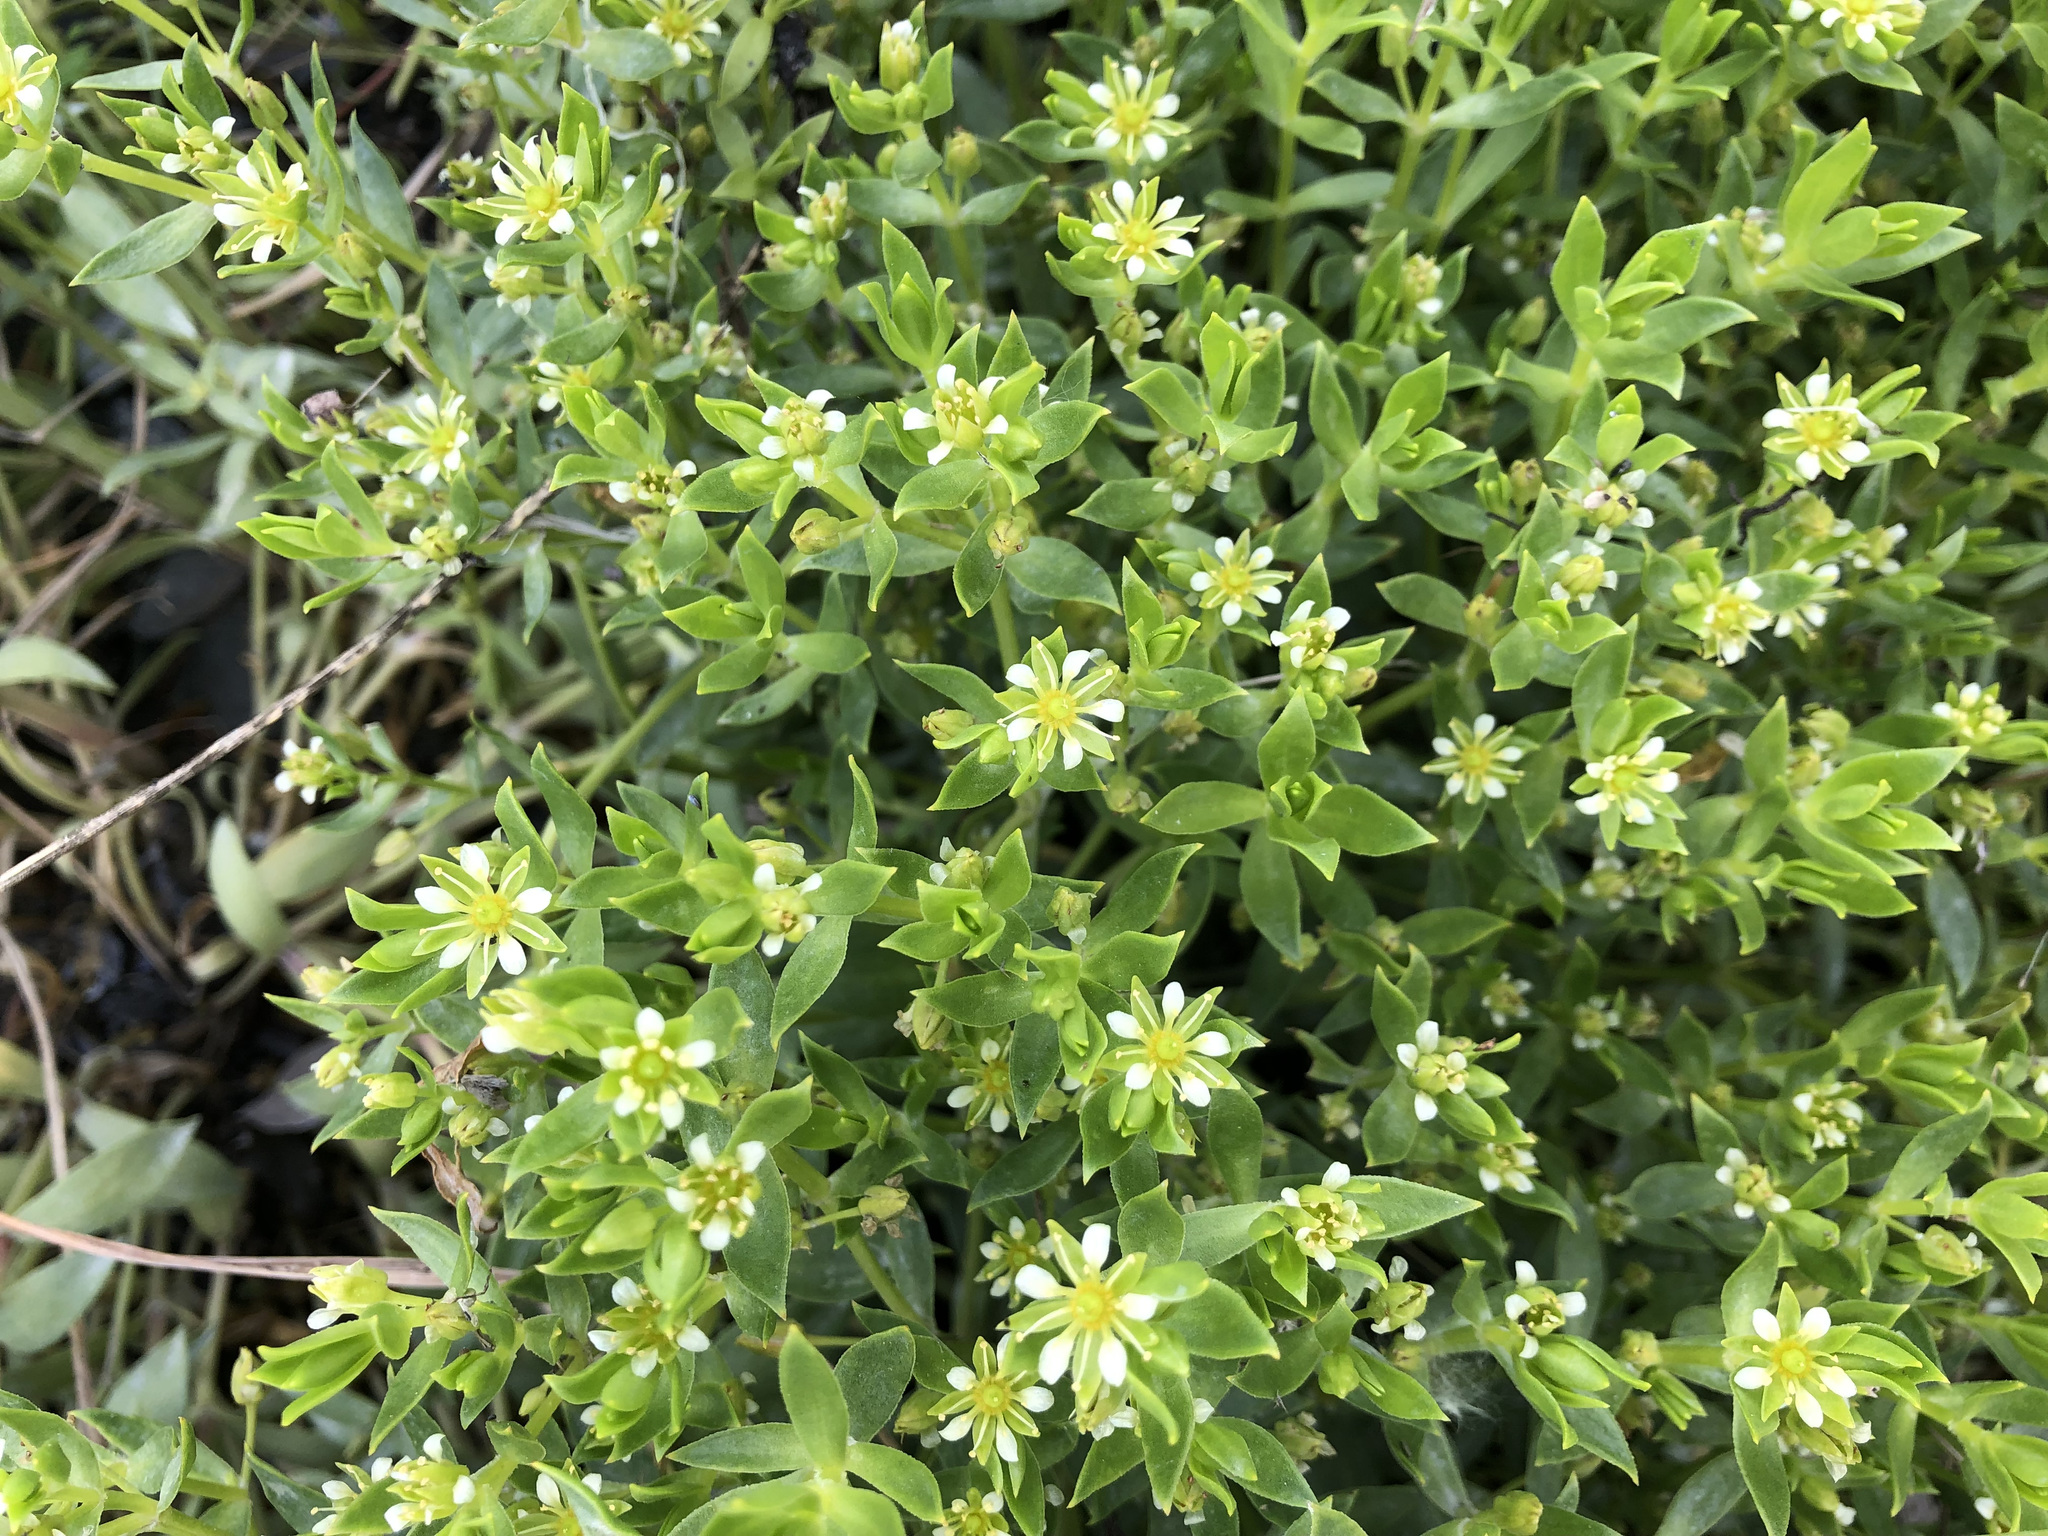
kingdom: Plantae
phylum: Tracheophyta
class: Magnoliopsida
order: Caryophyllales
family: Caryophyllaceae
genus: Honckenya
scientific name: Honckenya peploides
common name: Sea sandwort
